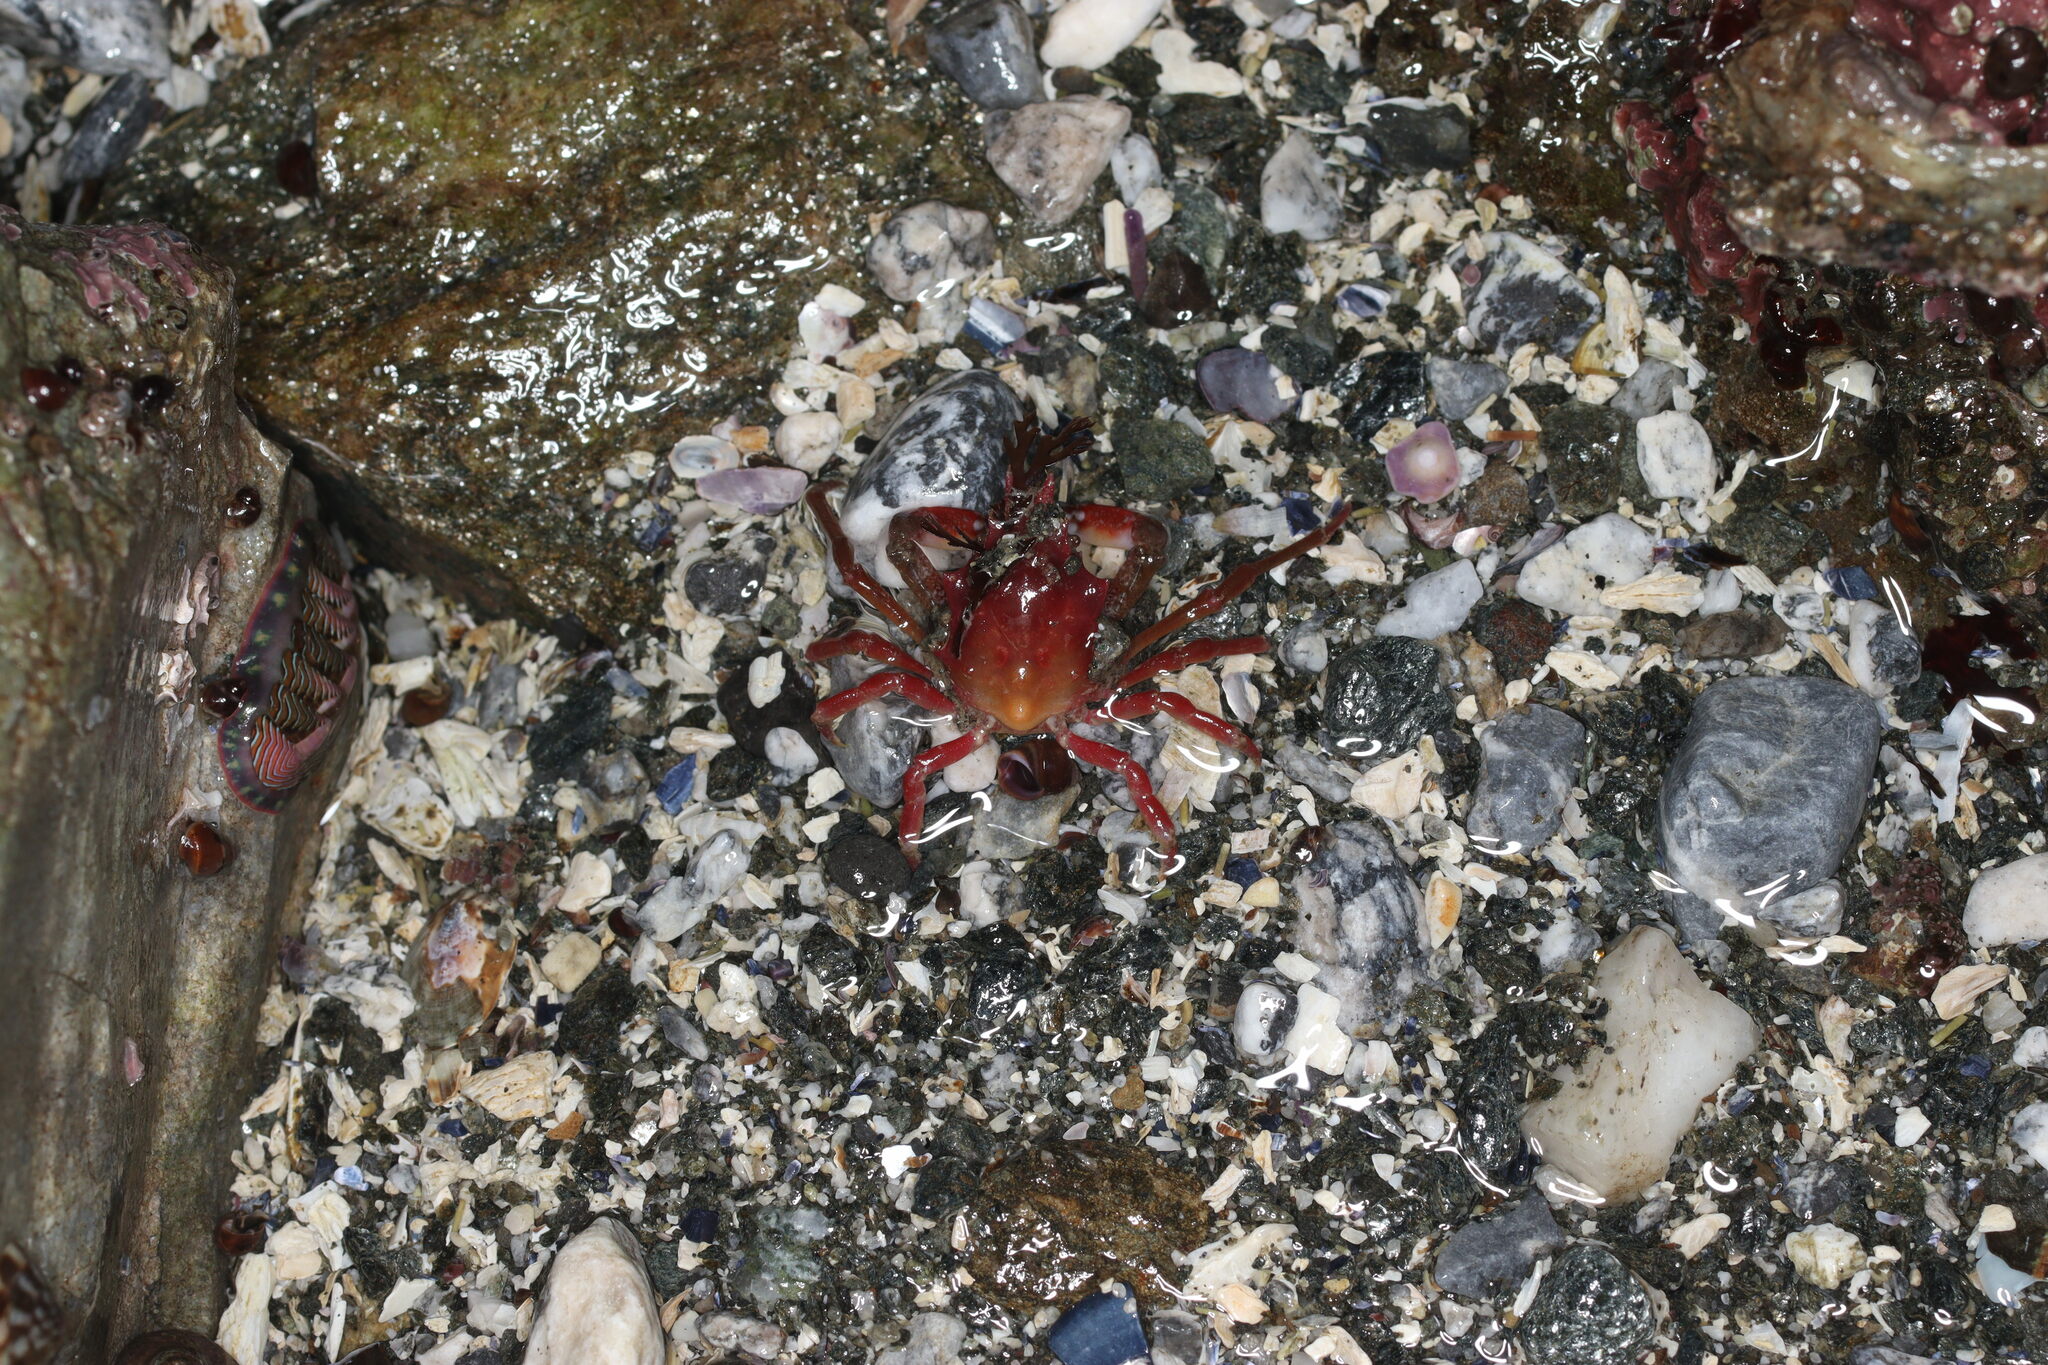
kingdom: Animalia
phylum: Arthropoda
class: Malacostraca
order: Decapoda
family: Epialtidae
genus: Pugettia
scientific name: Pugettia gracilis
